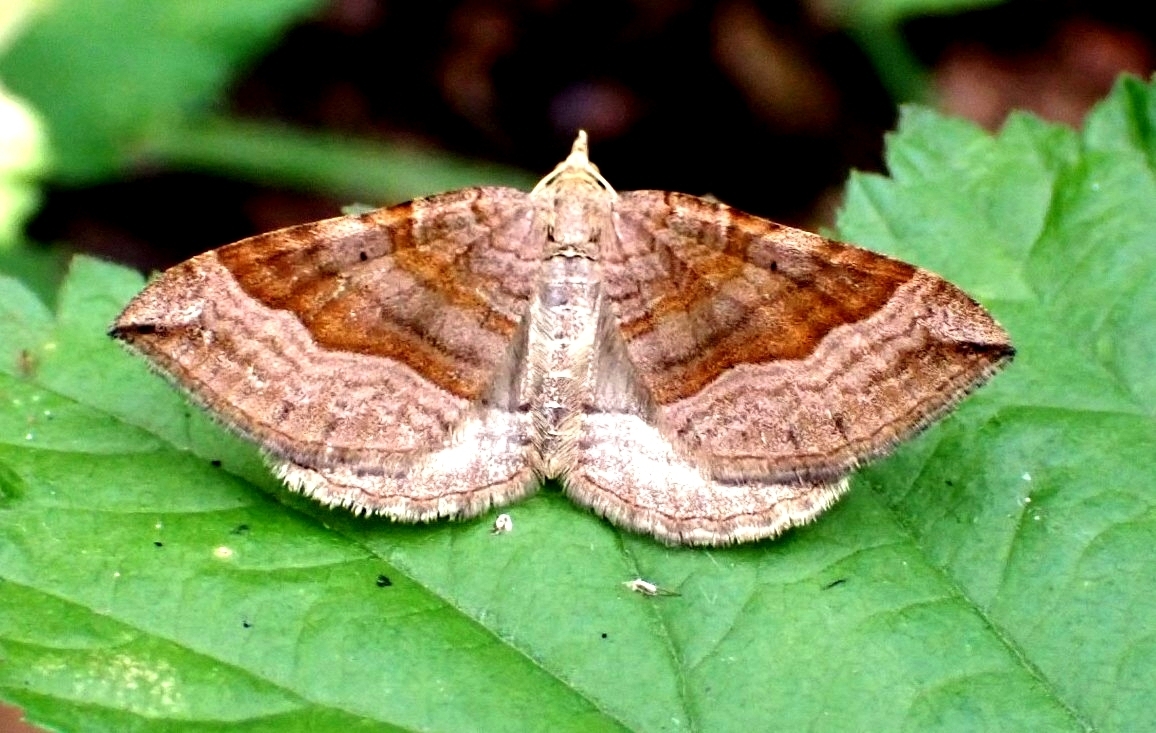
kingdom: Animalia
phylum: Arthropoda
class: Insecta
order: Lepidoptera
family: Geometridae
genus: Scotopteryx
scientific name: Scotopteryx chenopodiata
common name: Shaded broad-bar
